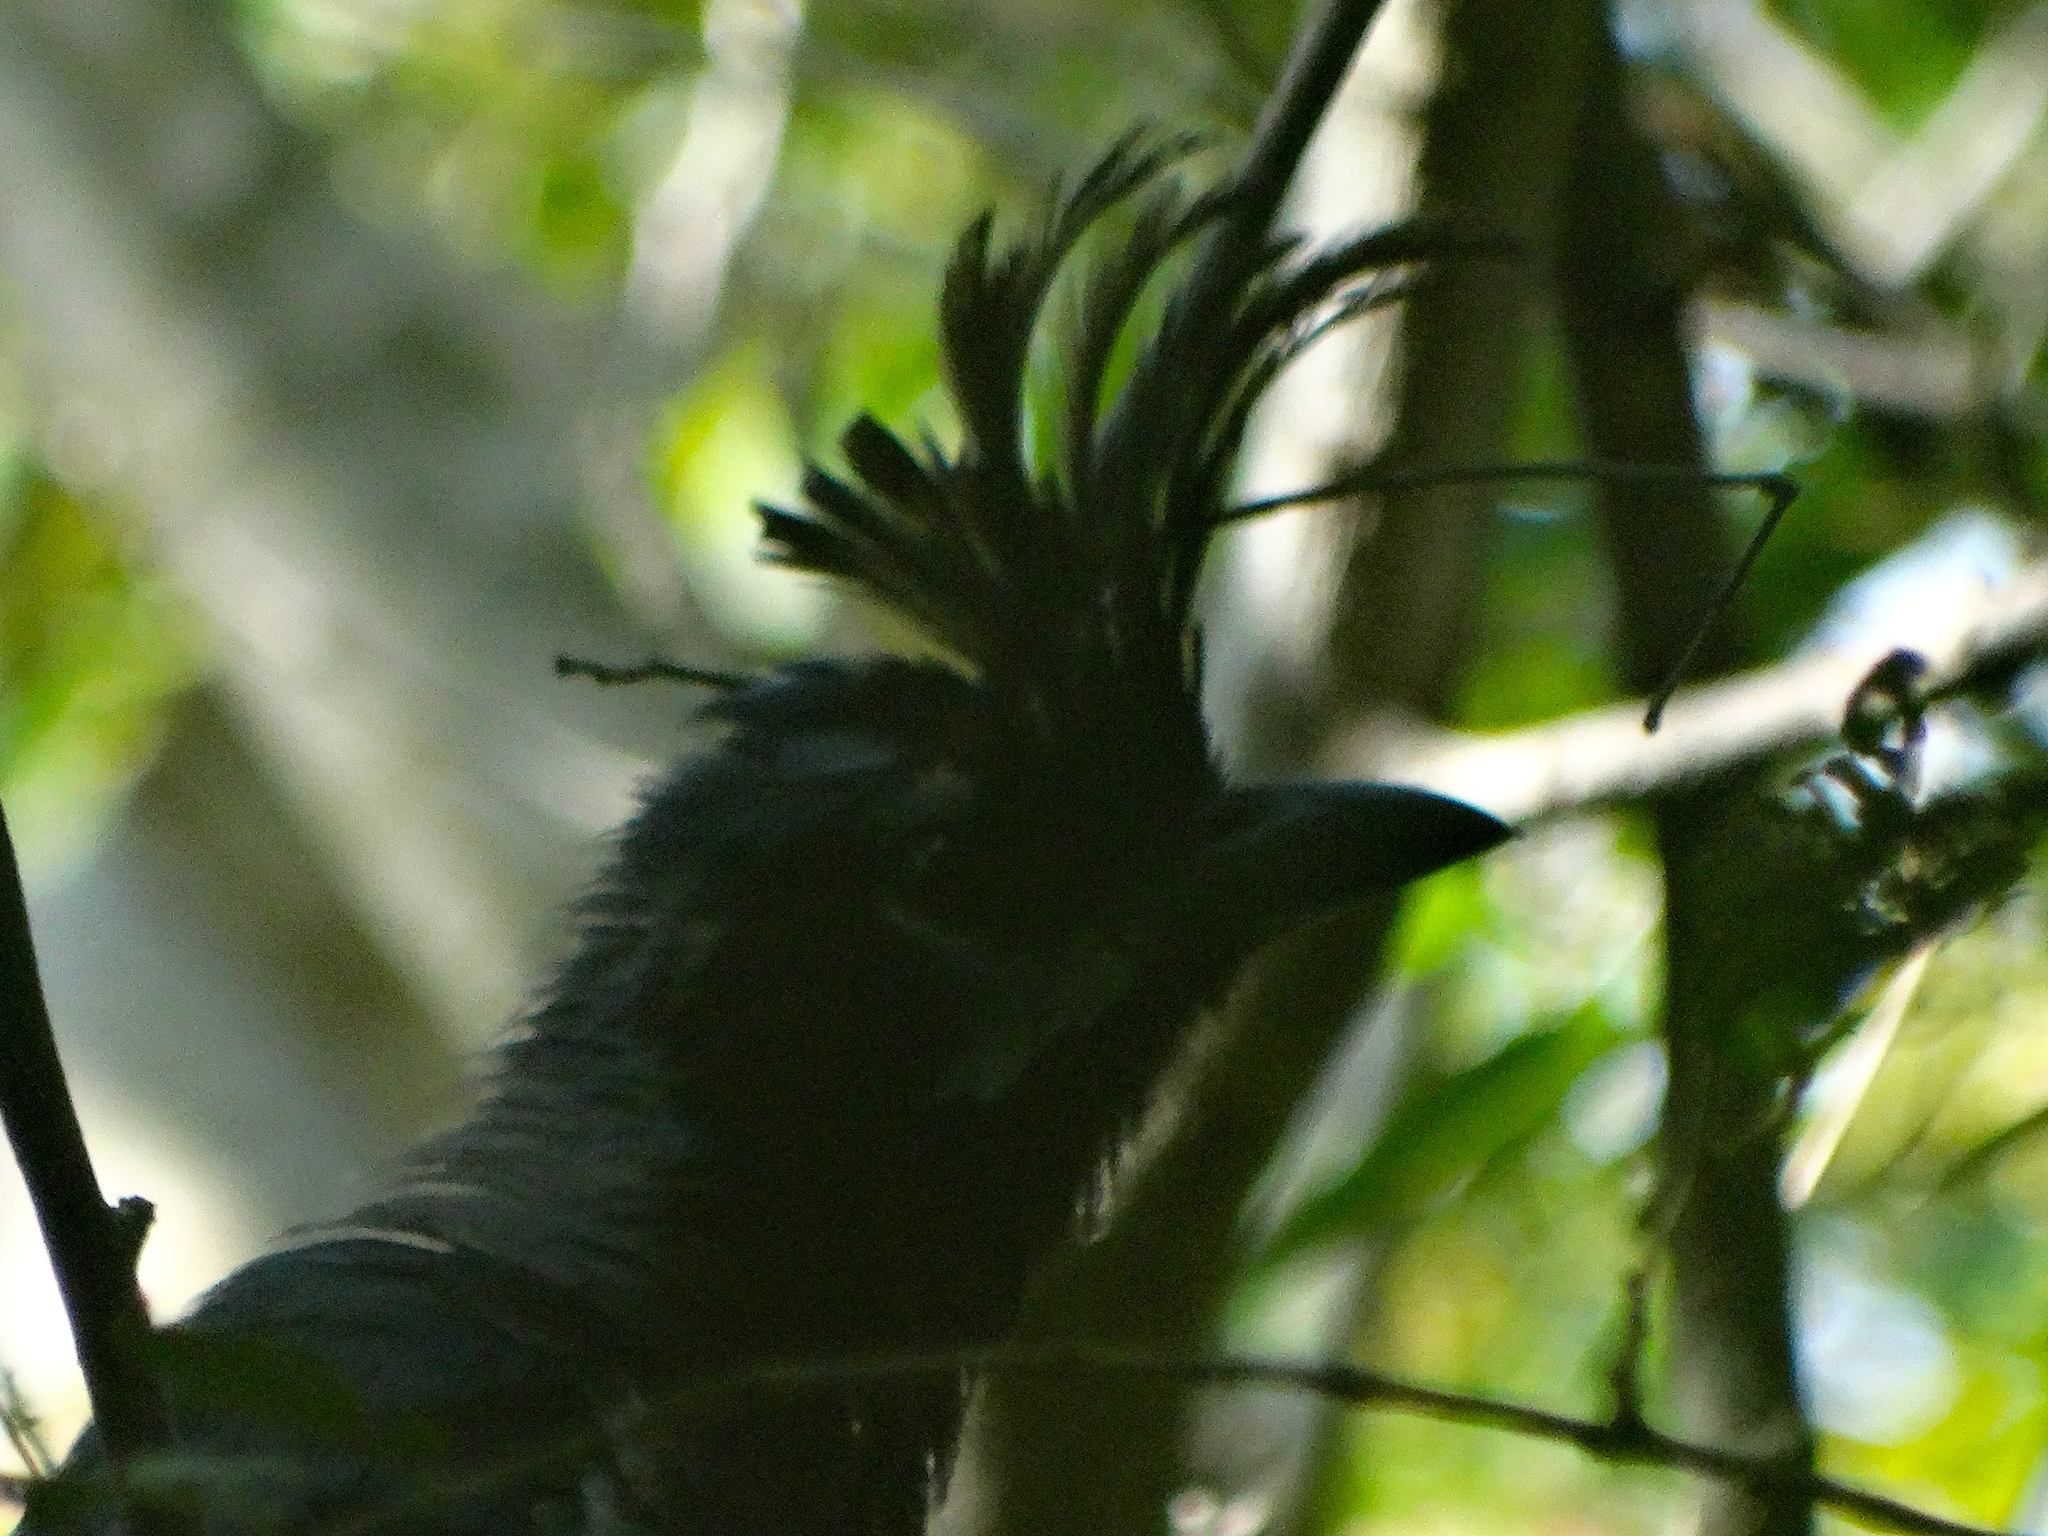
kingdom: Animalia
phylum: Chordata
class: Aves
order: Passeriformes
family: Corvidae
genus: Calocitta
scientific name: Calocitta colliei
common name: Black-throated magpie-jay
